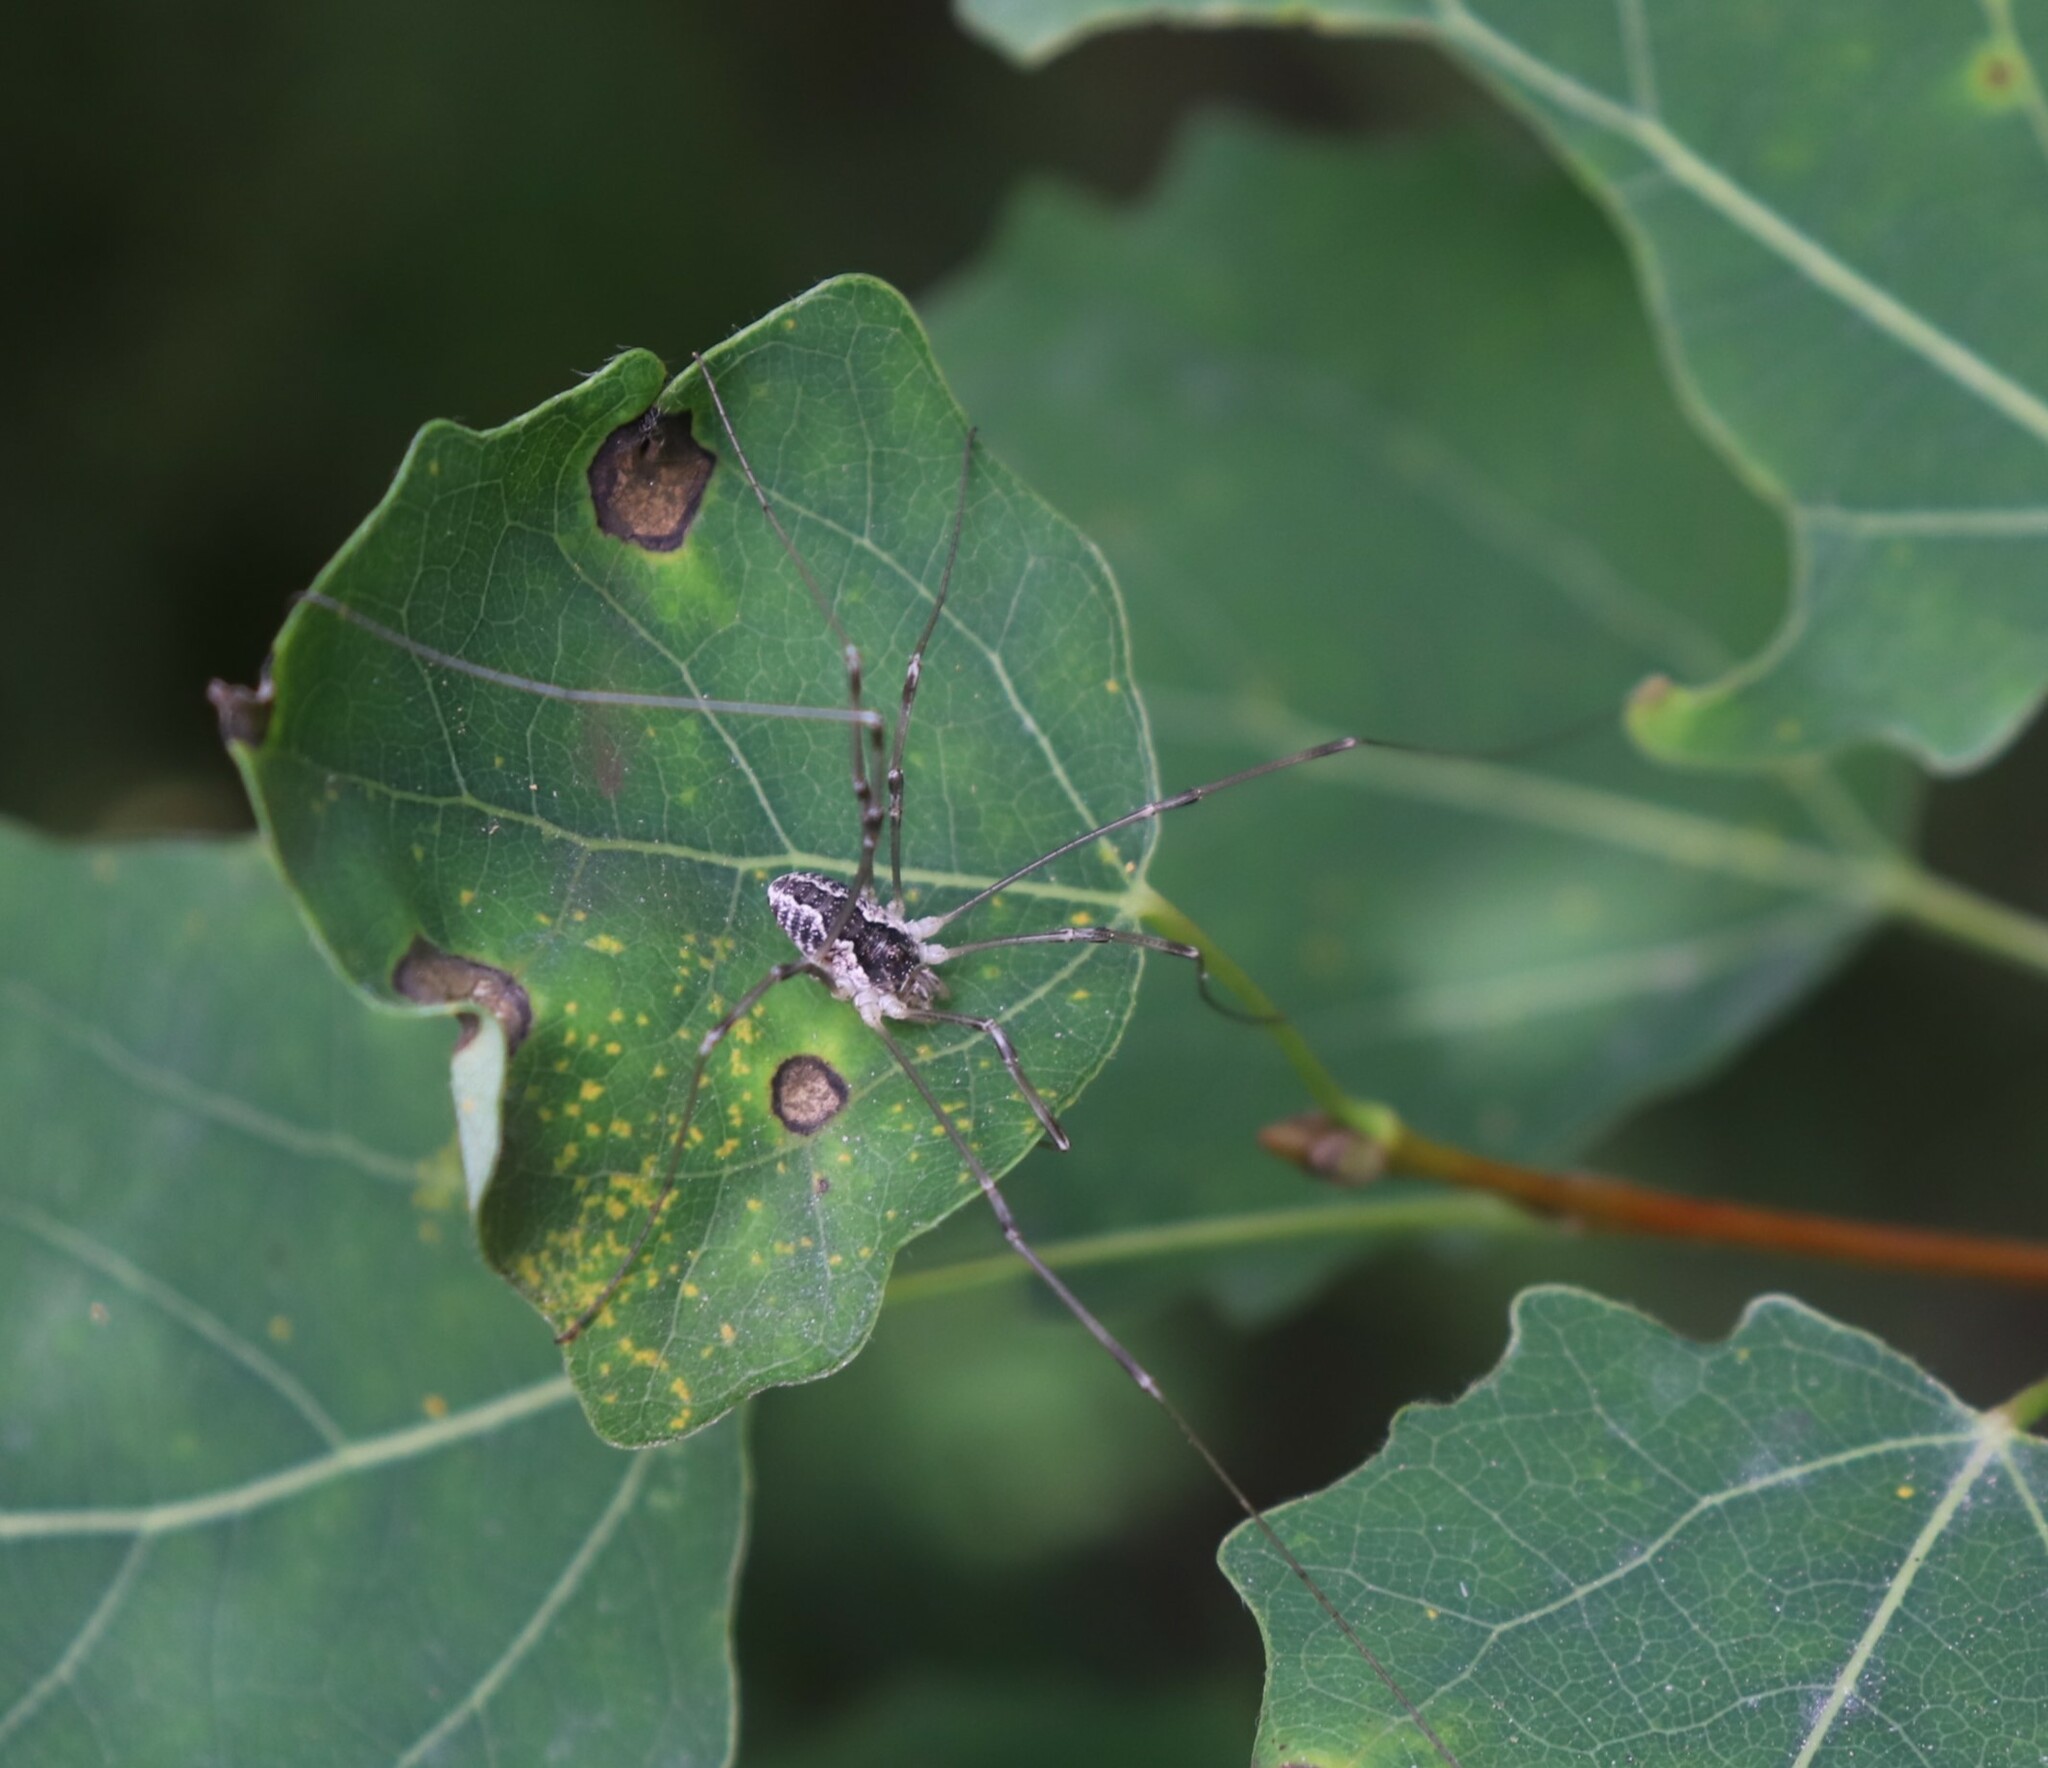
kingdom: Animalia
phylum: Arthropoda
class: Arachnida
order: Opiliones
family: Phalangiidae
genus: Mitopus
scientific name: Mitopus morio
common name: Saddleback harvestman
